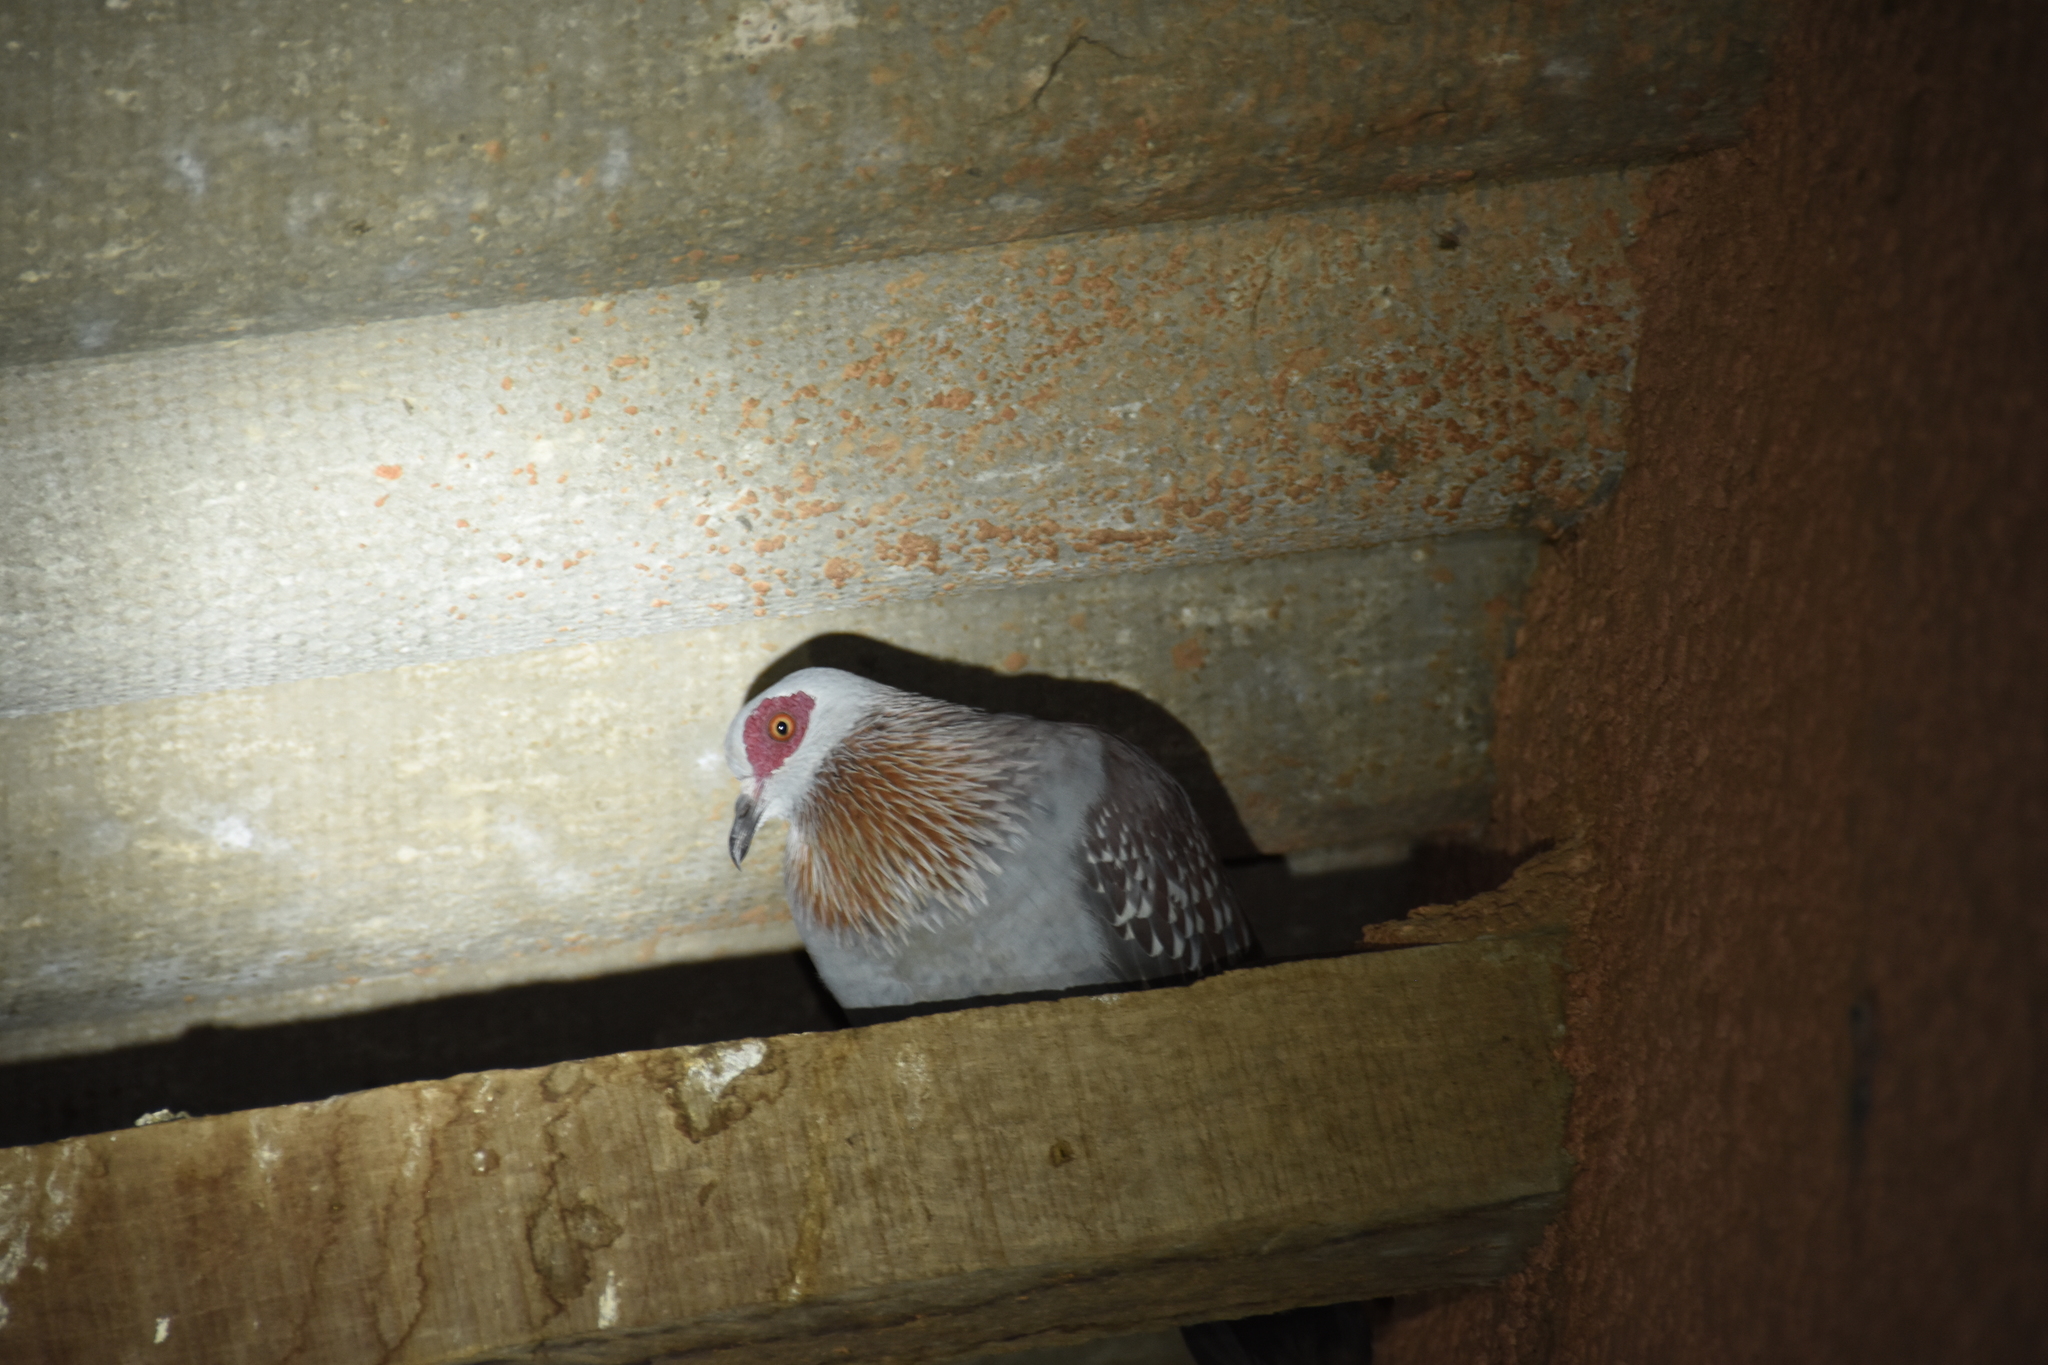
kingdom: Animalia
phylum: Chordata
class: Aves
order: Columbiformes
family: Columbidae
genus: Columba
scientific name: Columba guinea
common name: Speckled pigeon
